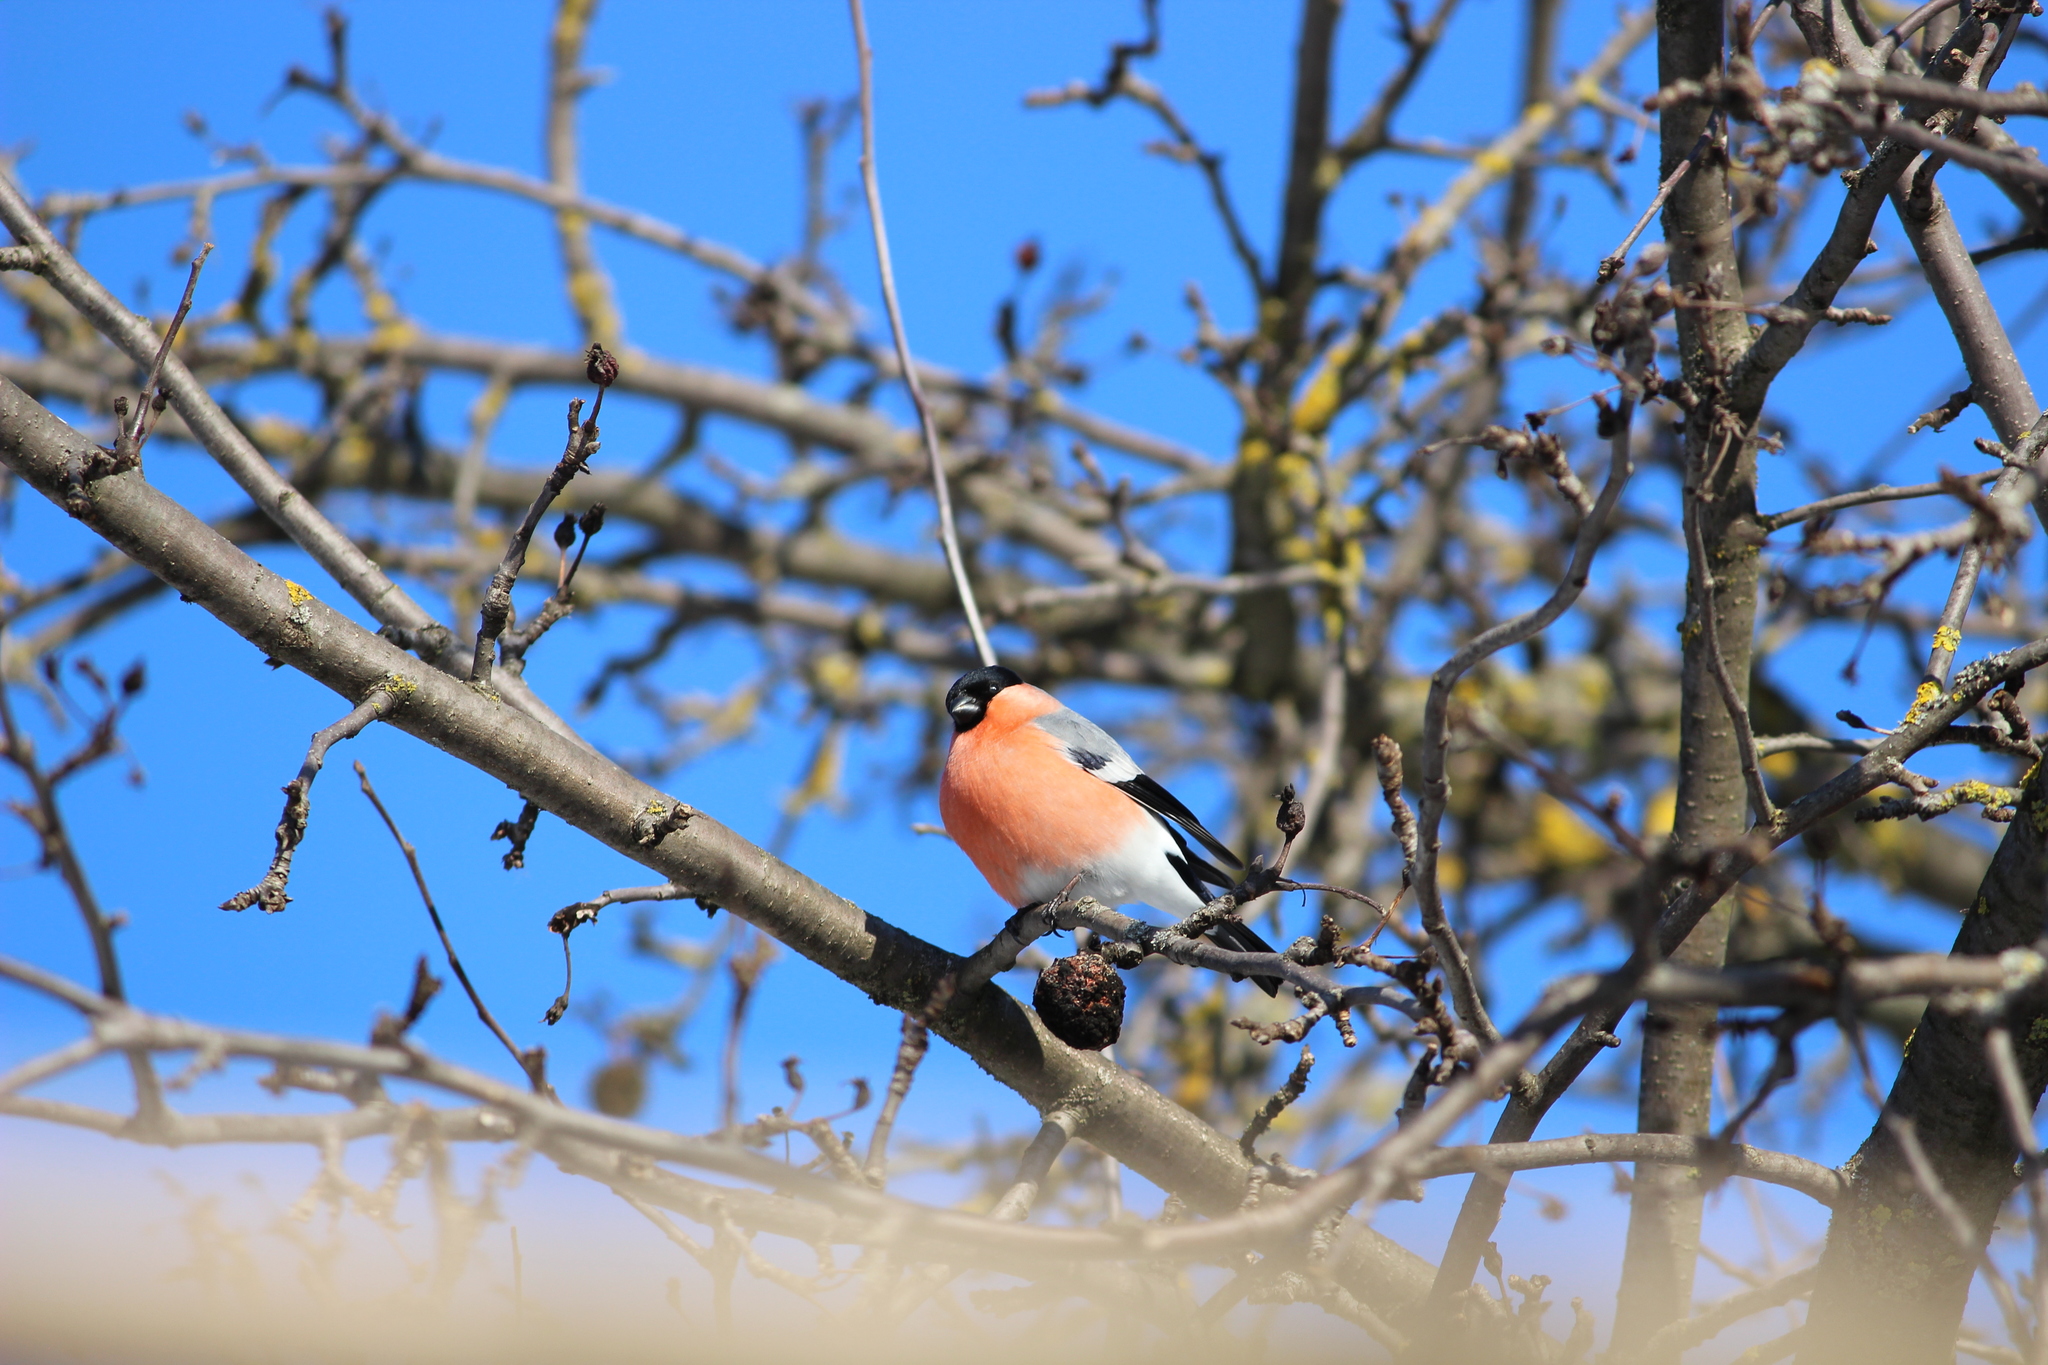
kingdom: Animalia
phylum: Chordata
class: Aves
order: Passeriformes
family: Fringillidae
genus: Pyrrhula
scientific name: Pyrrhula pyrrhula
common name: Eurasian bullfinch
